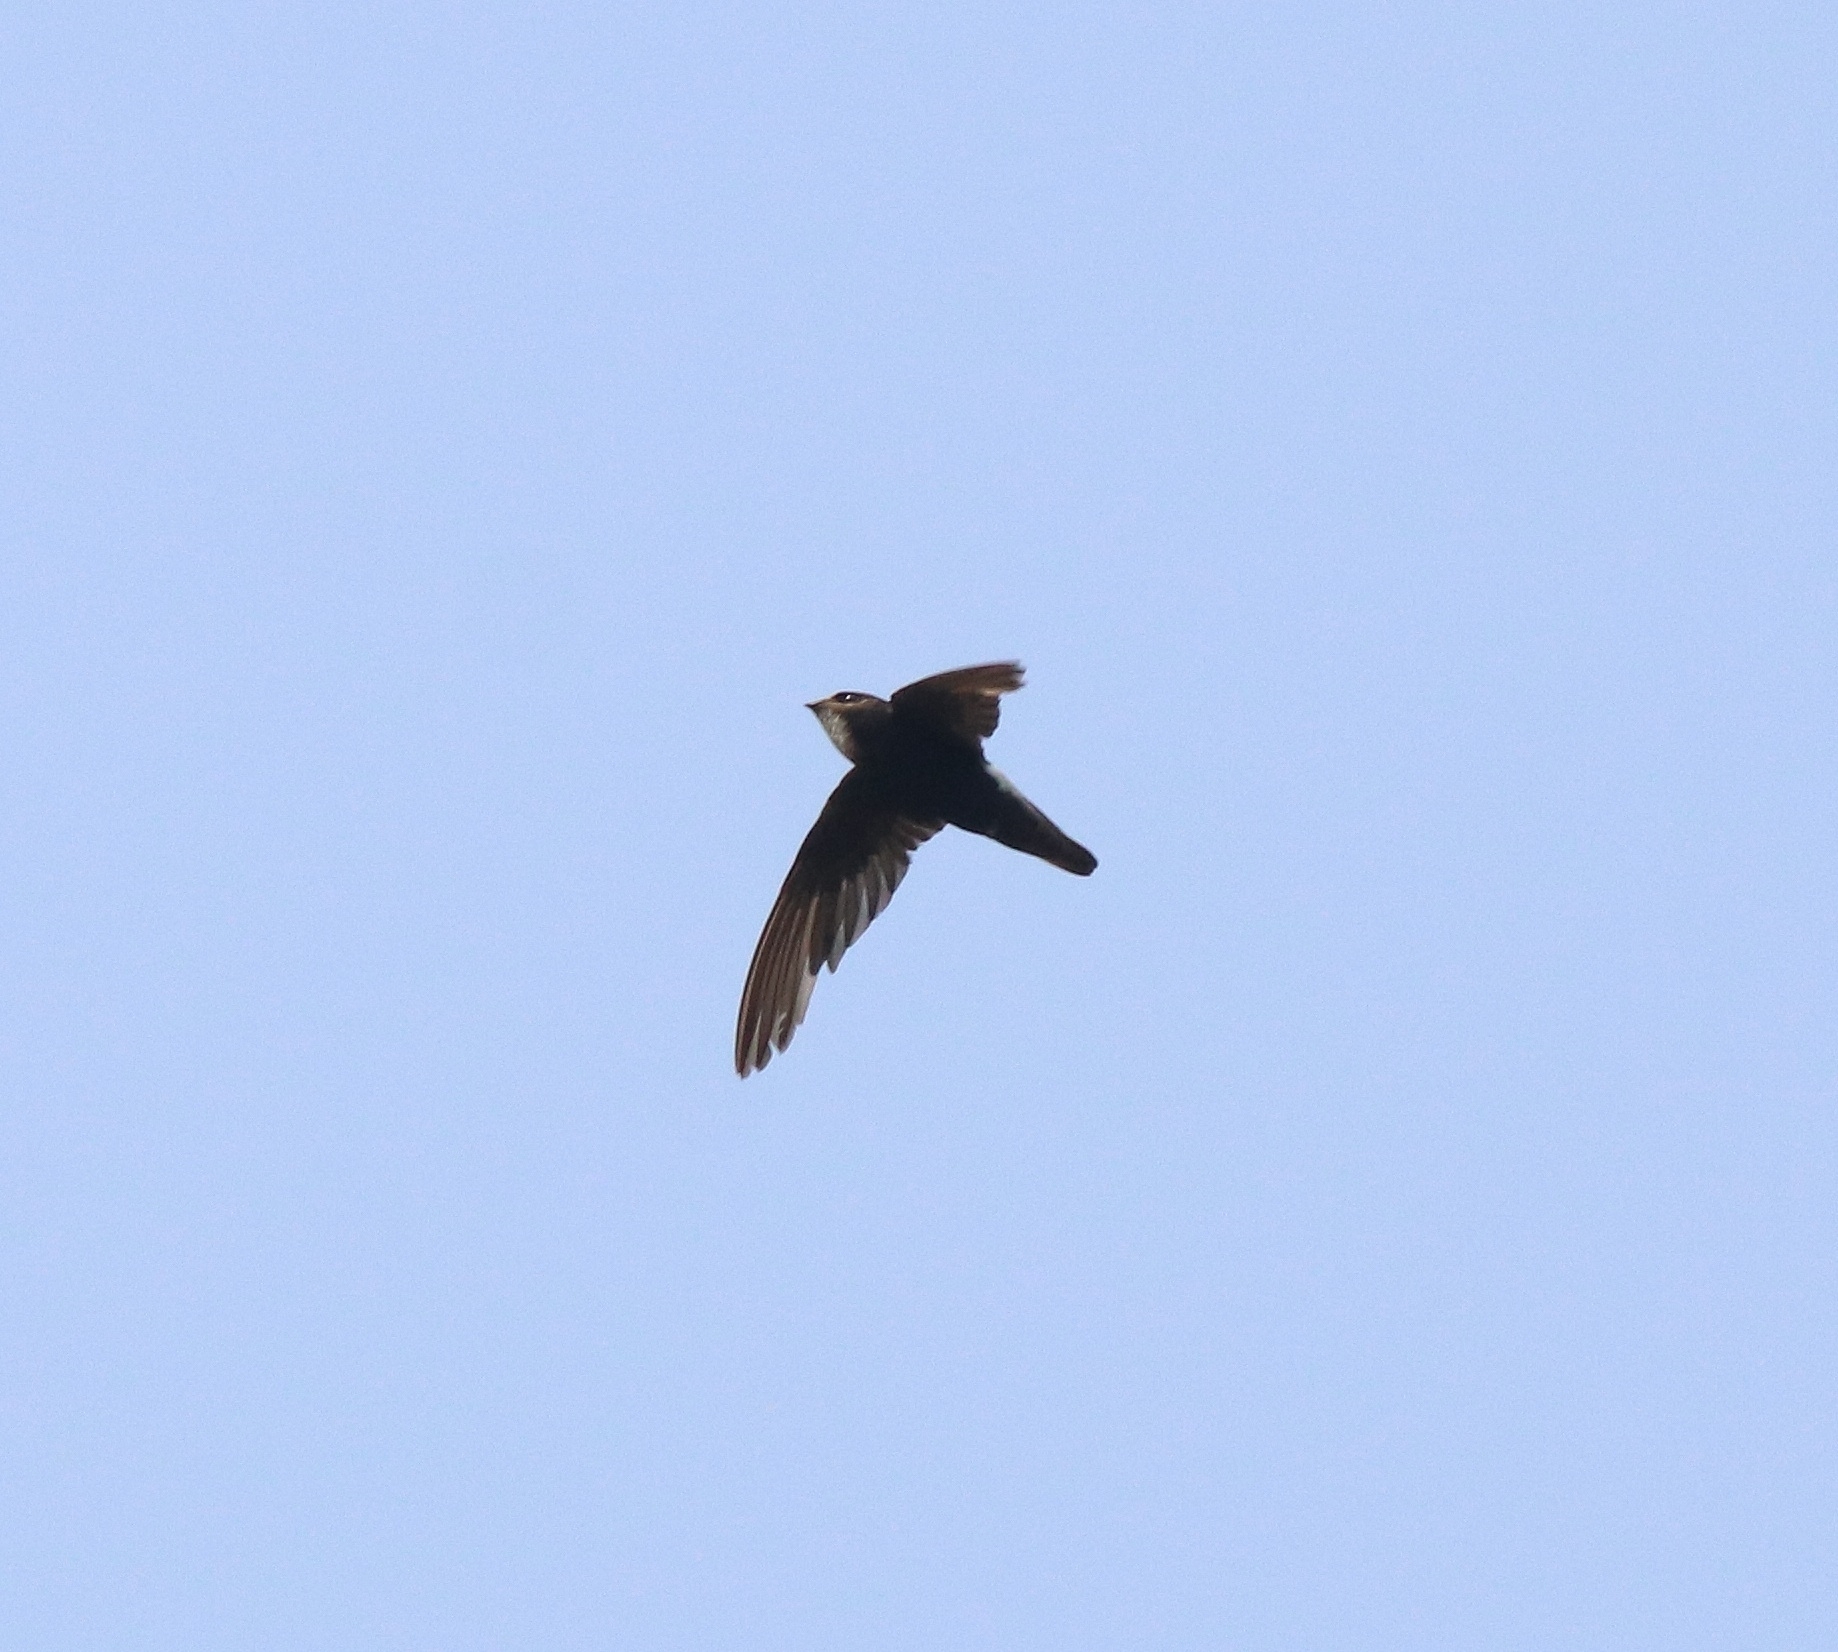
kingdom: Animalia
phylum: Chordata
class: Aves
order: Apodiformes
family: Apodidae
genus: Apus
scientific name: Apus affinis
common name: Little swift
